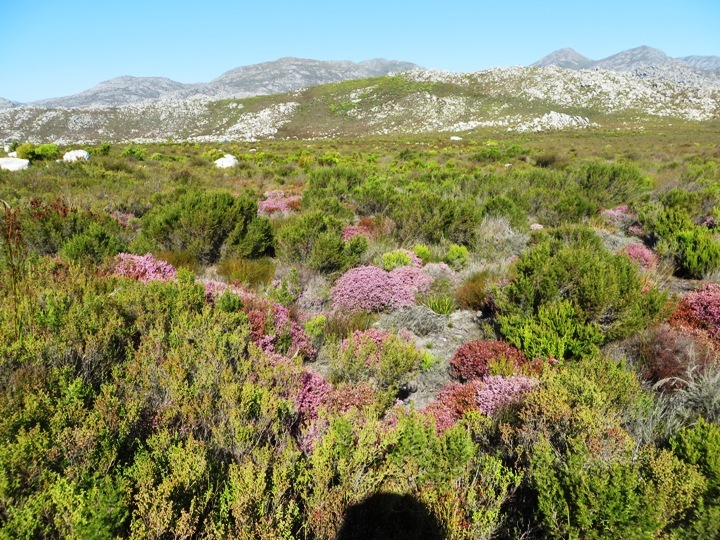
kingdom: Plantae
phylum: Tracheophyta
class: Magnoliopsida
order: Ericales
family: Ericaceae
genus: Erica
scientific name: Erica equisetifolia
